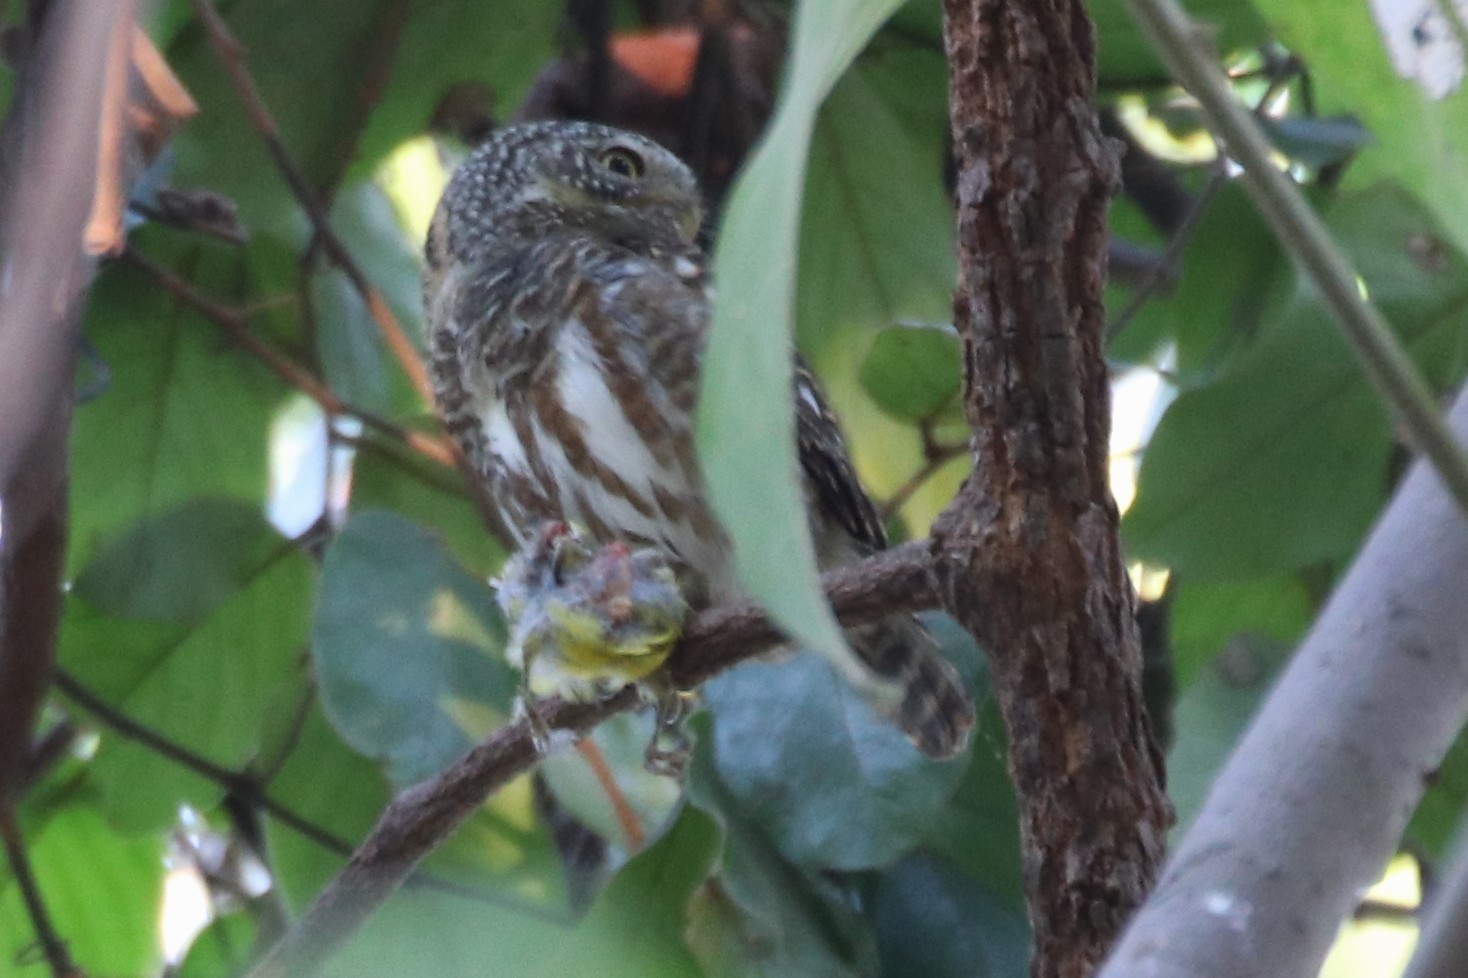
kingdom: Animalia
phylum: Chordata
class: Aves
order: Strigiformes
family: Strigidae
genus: Glaucidium
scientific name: Glaucidium brodiei
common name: Collared owlet
